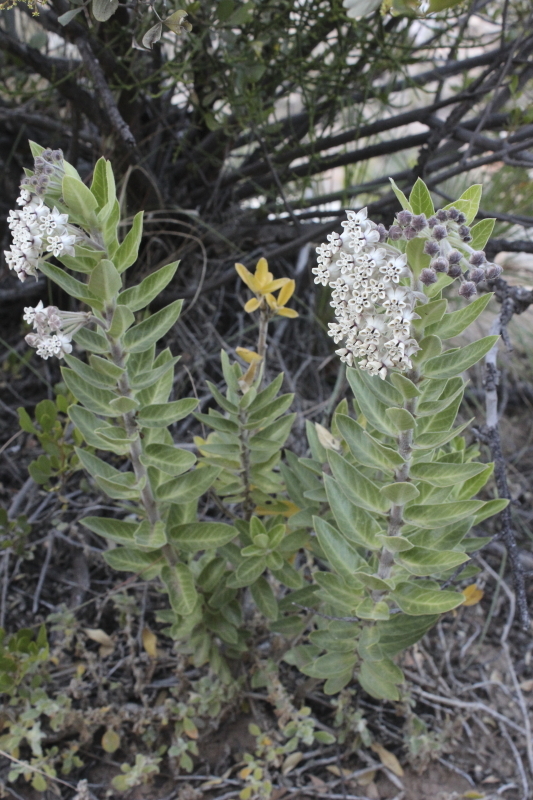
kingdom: Plantae
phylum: Tracheophyta
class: Magnoliopsida
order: Gentianales
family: Apocynaceae
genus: Gomphocarpus
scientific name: Gomphocarpus cancellatus
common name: Wild cotton
